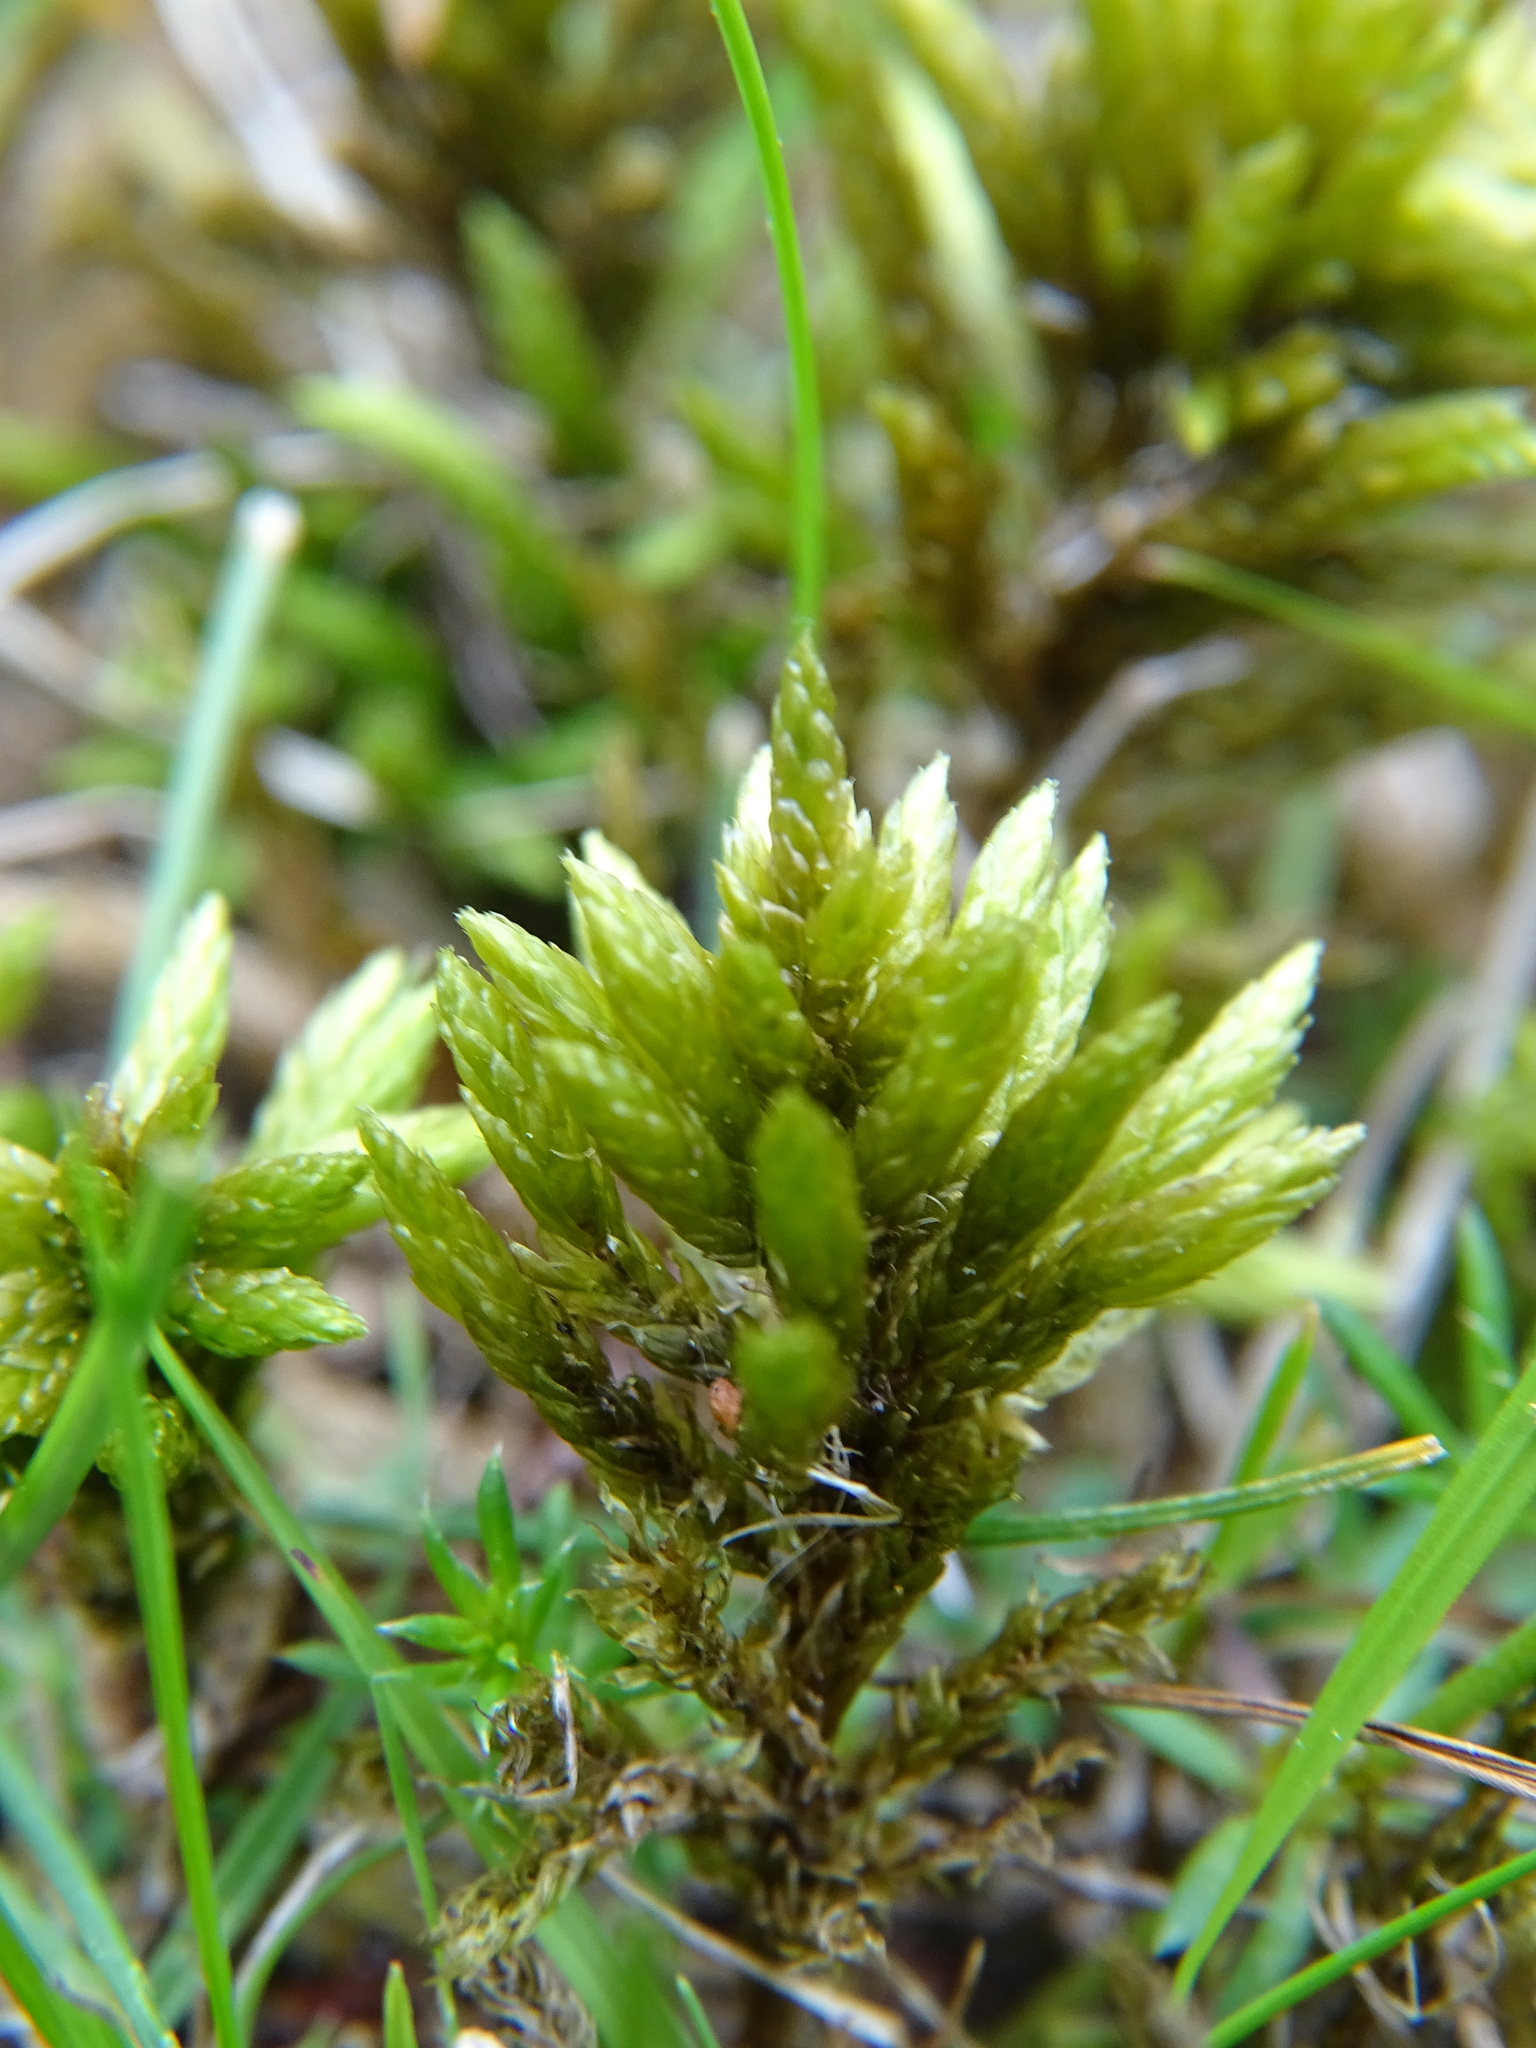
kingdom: Plantae
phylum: Bryophyta
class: Bryopsida
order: Hypnales
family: Climaciaceae
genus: Climacium
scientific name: Climacium dendroides
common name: Northern tree moss
